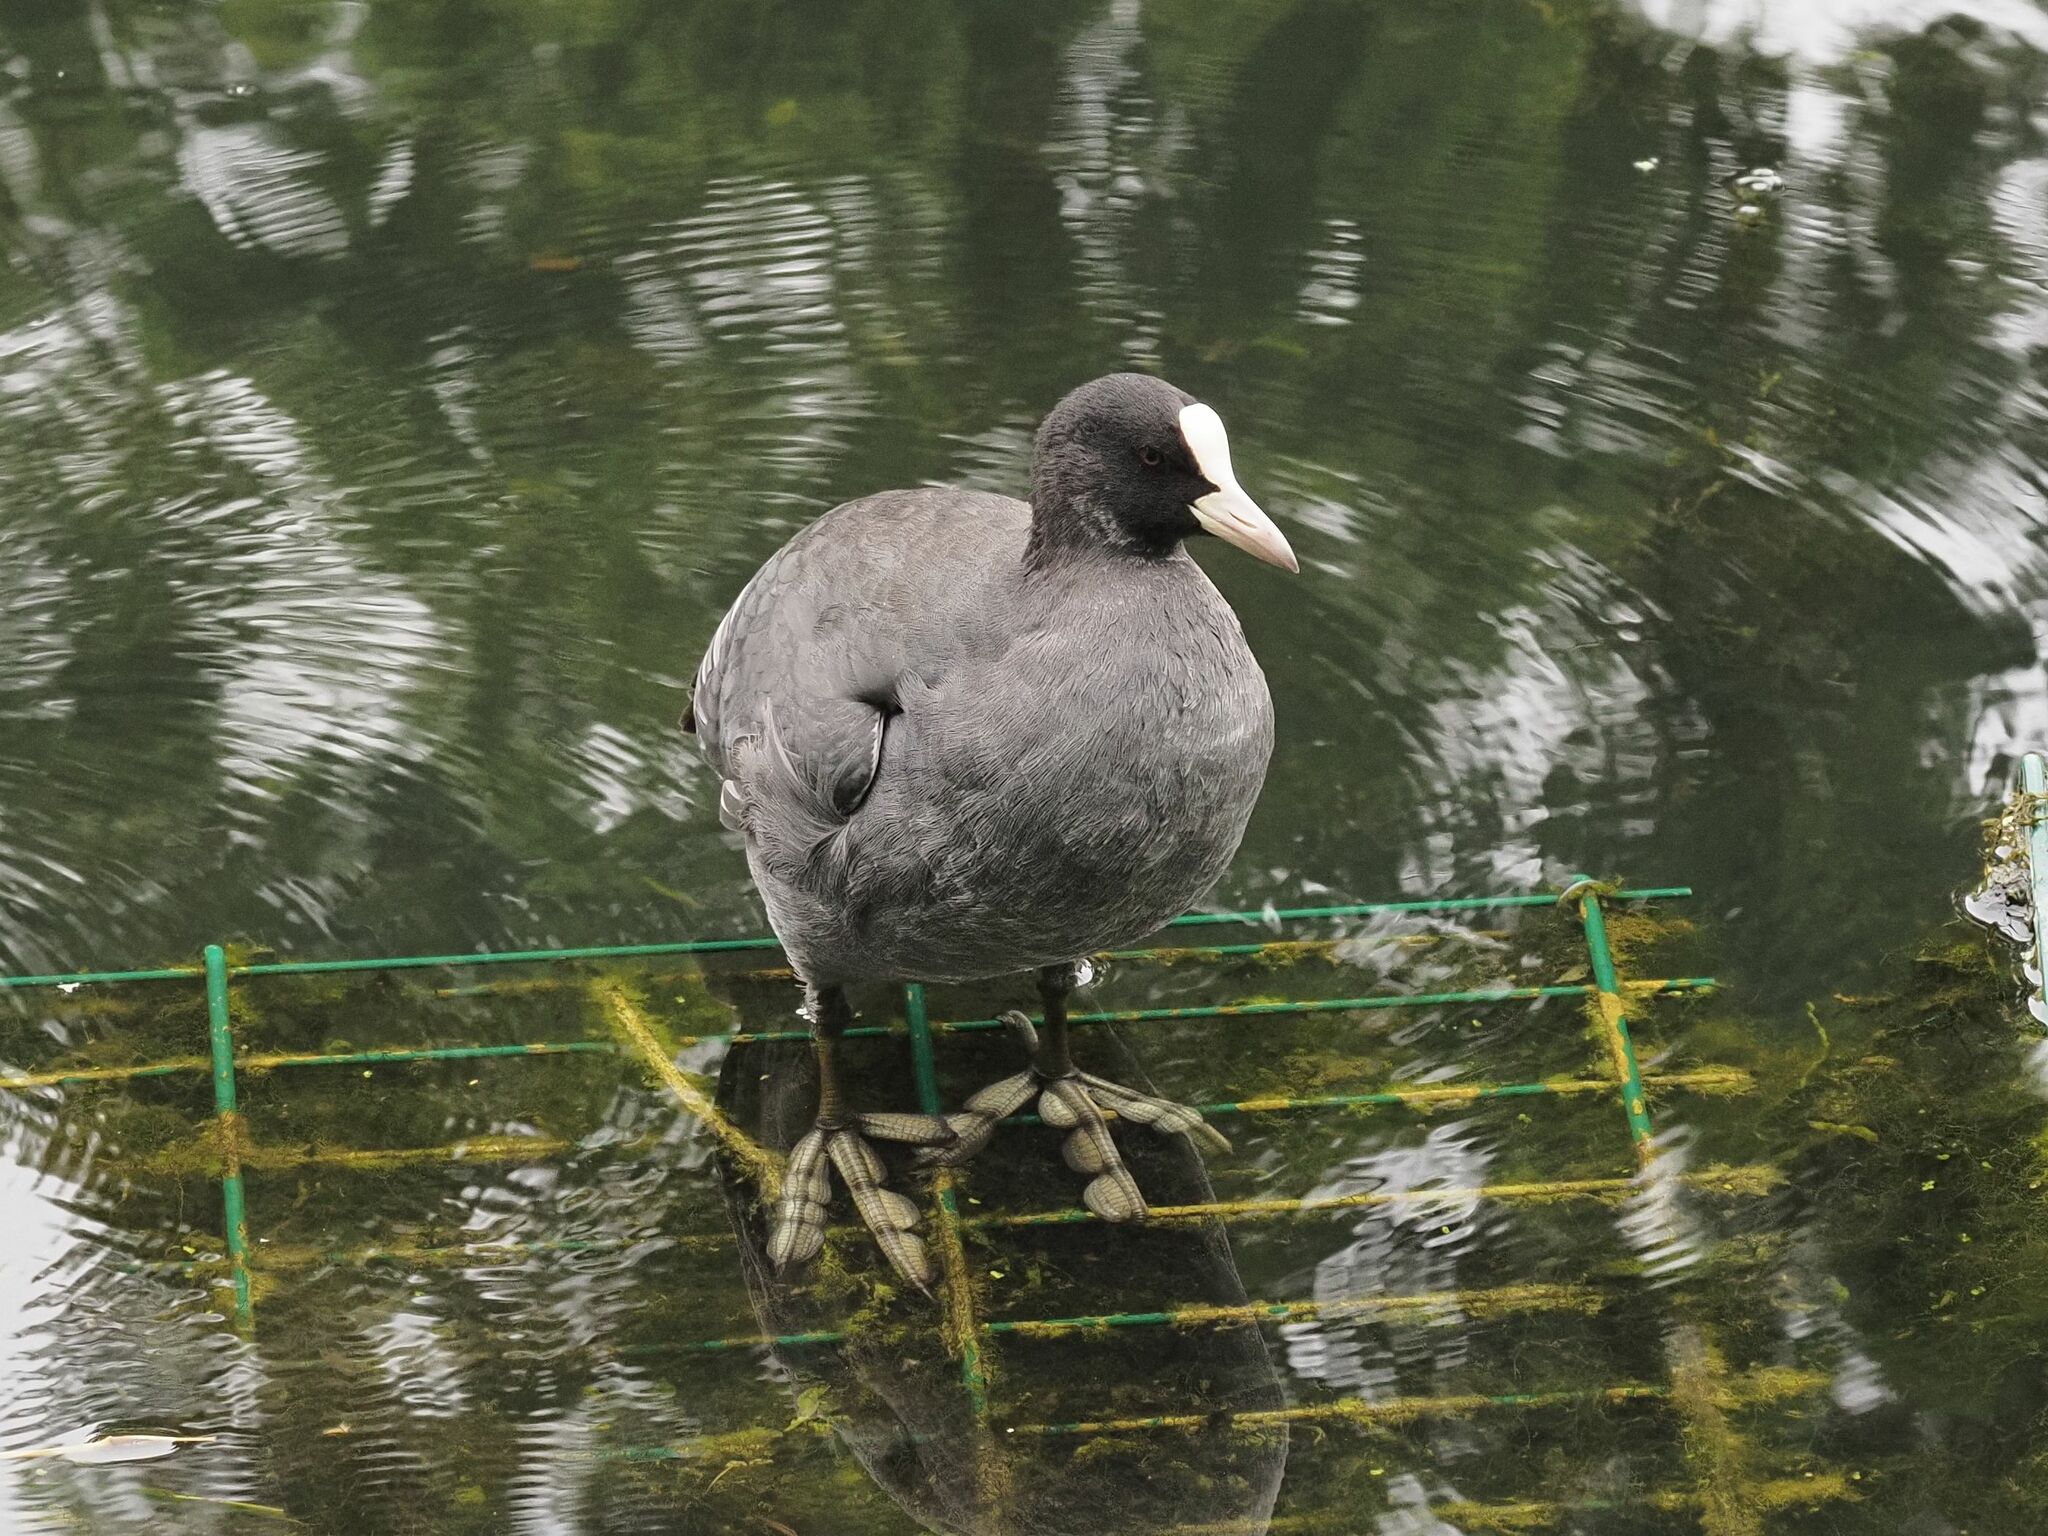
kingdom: Animalia
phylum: Chordata
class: Aves
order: Gruiformes
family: Rallidae
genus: Fulica
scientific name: Fulica atra
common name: Eurasian coot
